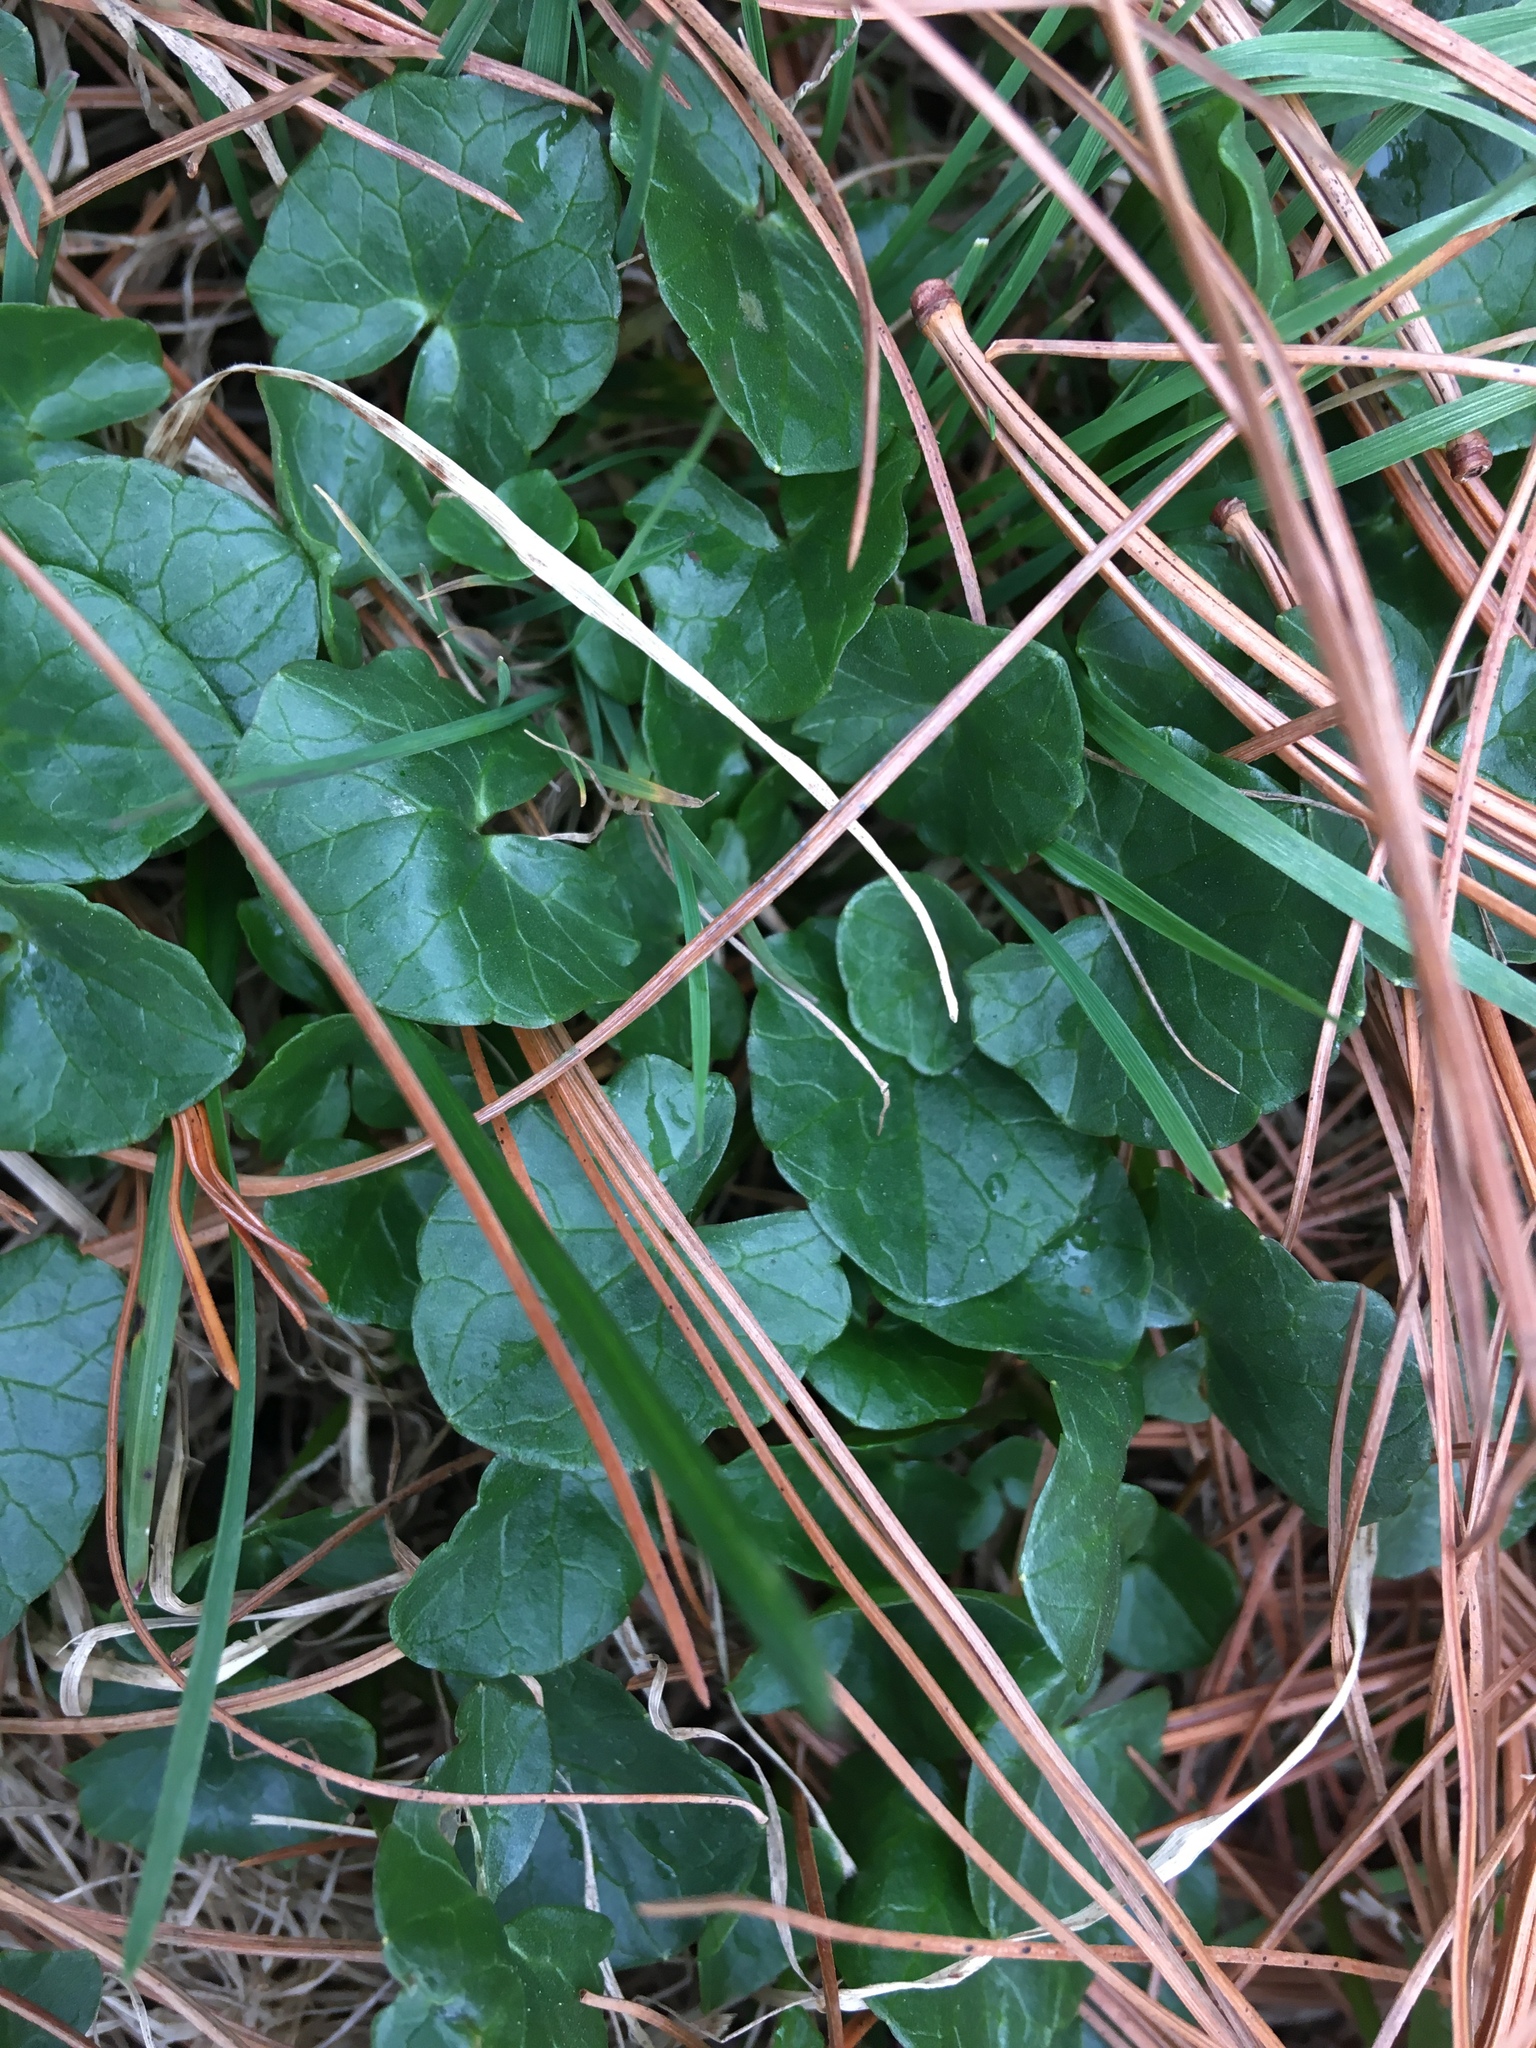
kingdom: Plantae
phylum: Tracheophyta
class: Magnoliopsida
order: Ranunculales
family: Ranunculaceae
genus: Ficaria
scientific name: Ficaria verna
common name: Lesser celandine
